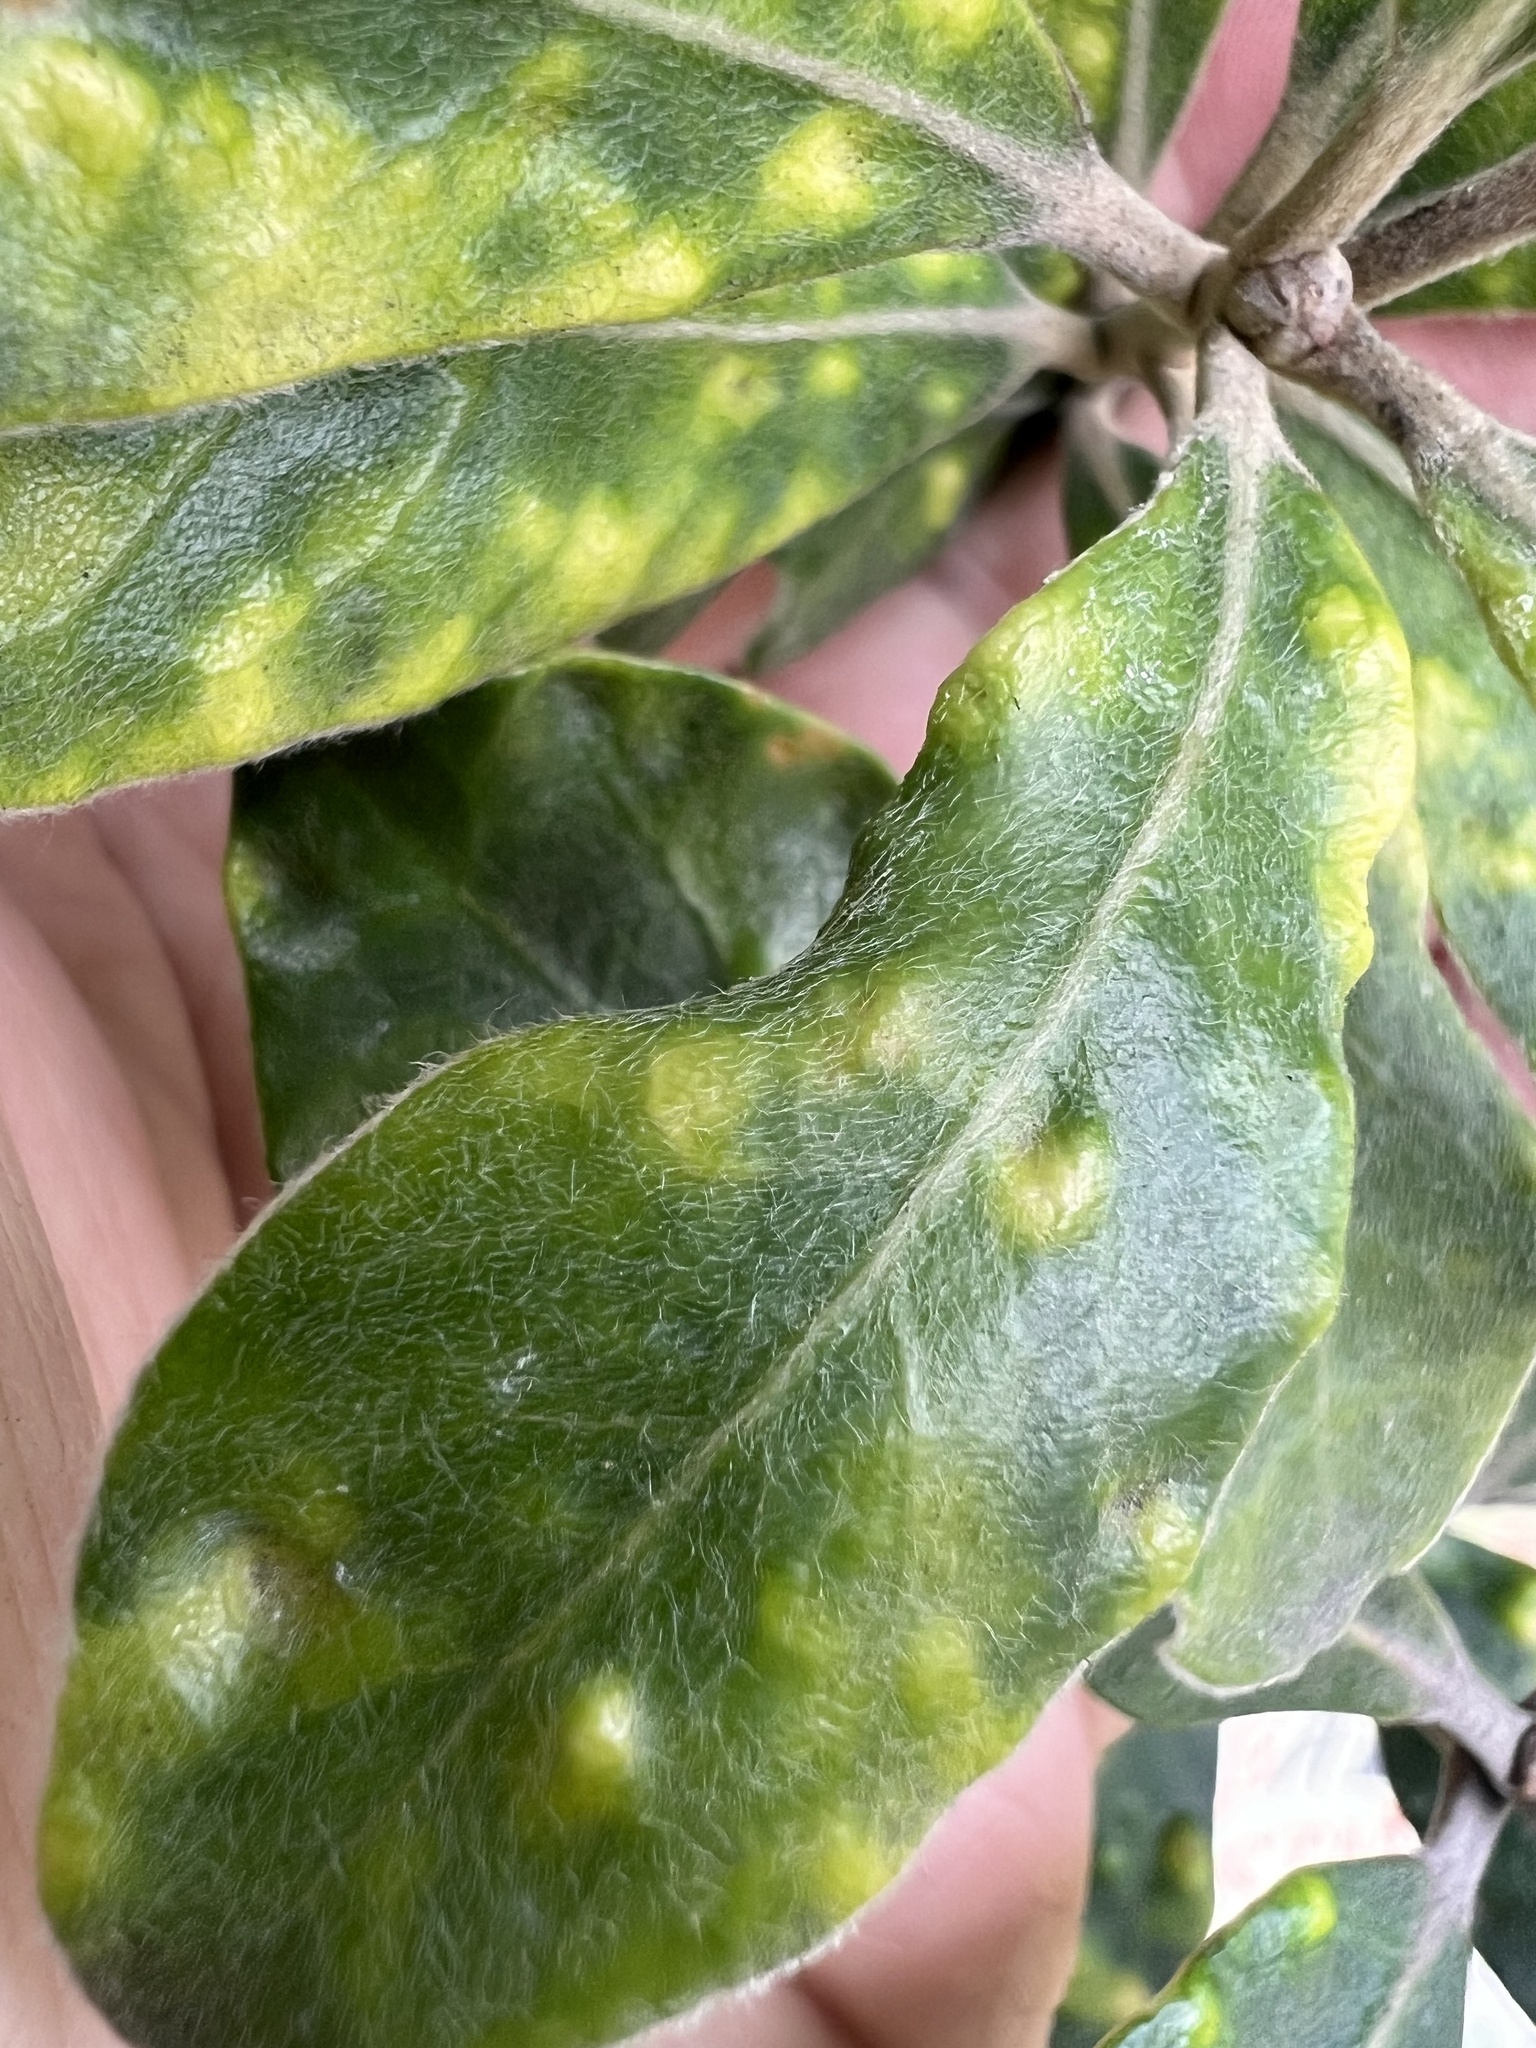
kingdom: Animalia
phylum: Arthropoda
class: Insecta
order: Hemiptera
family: Triozidae
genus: Powellia
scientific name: Powellia vitreoradiata
